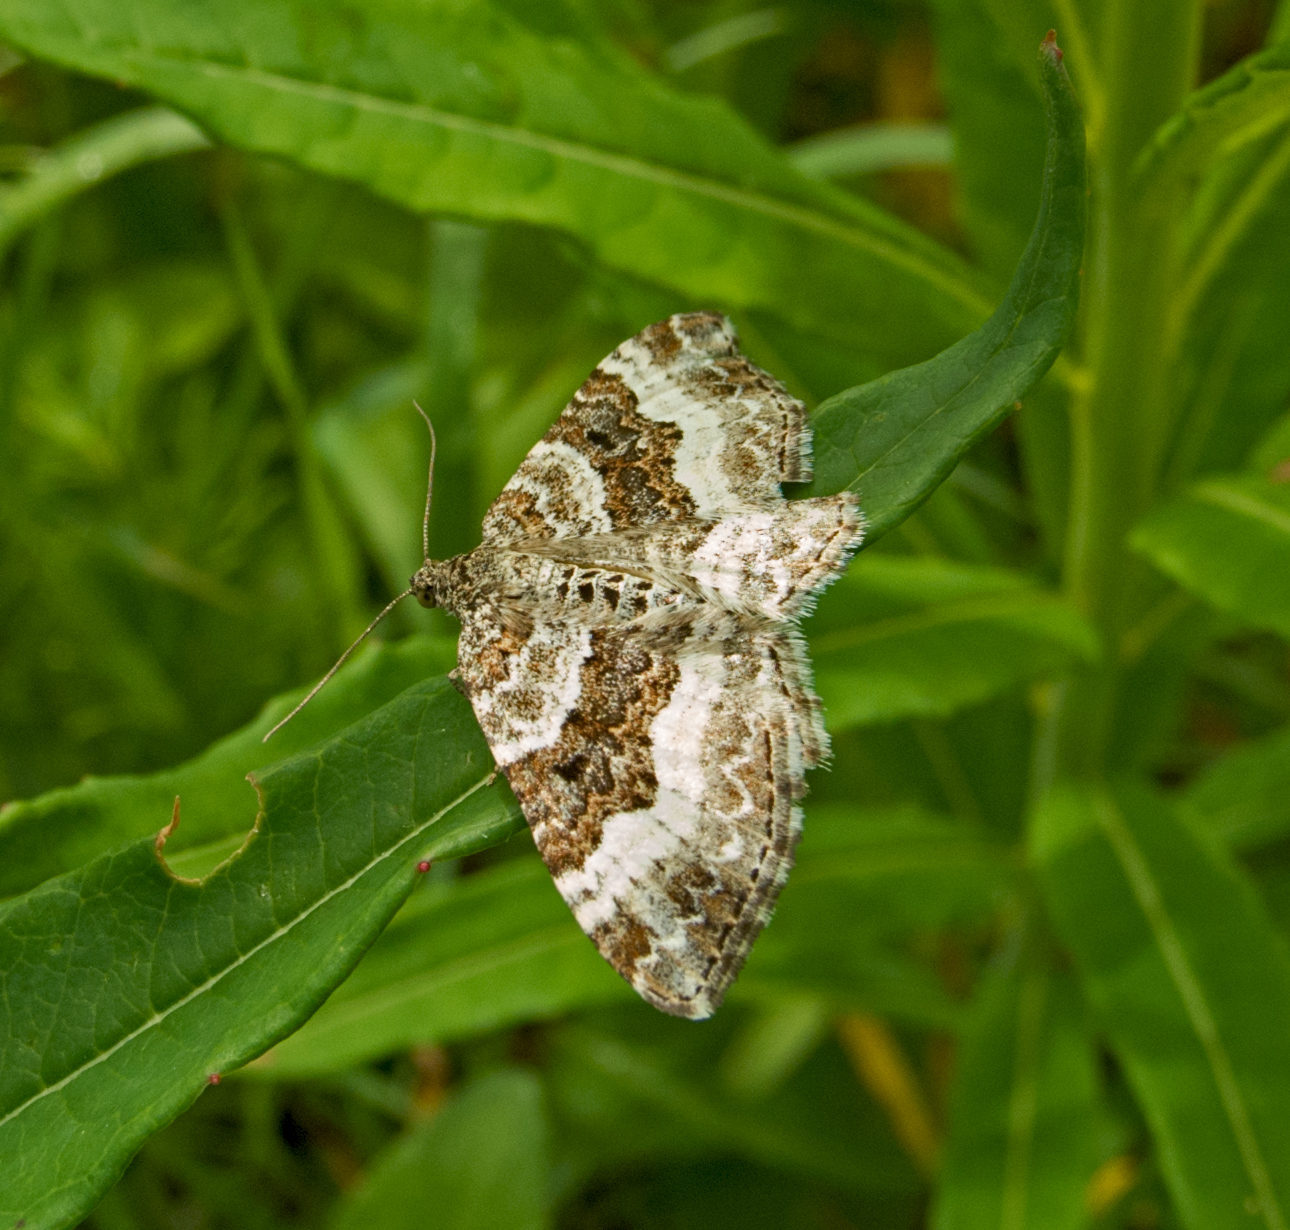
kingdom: Animalia
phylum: Arthropoda
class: Insecta
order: Lepidoptera
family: Geometridae
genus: Epirrhoe
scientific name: Epirrhoe alternata
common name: Common carpet
